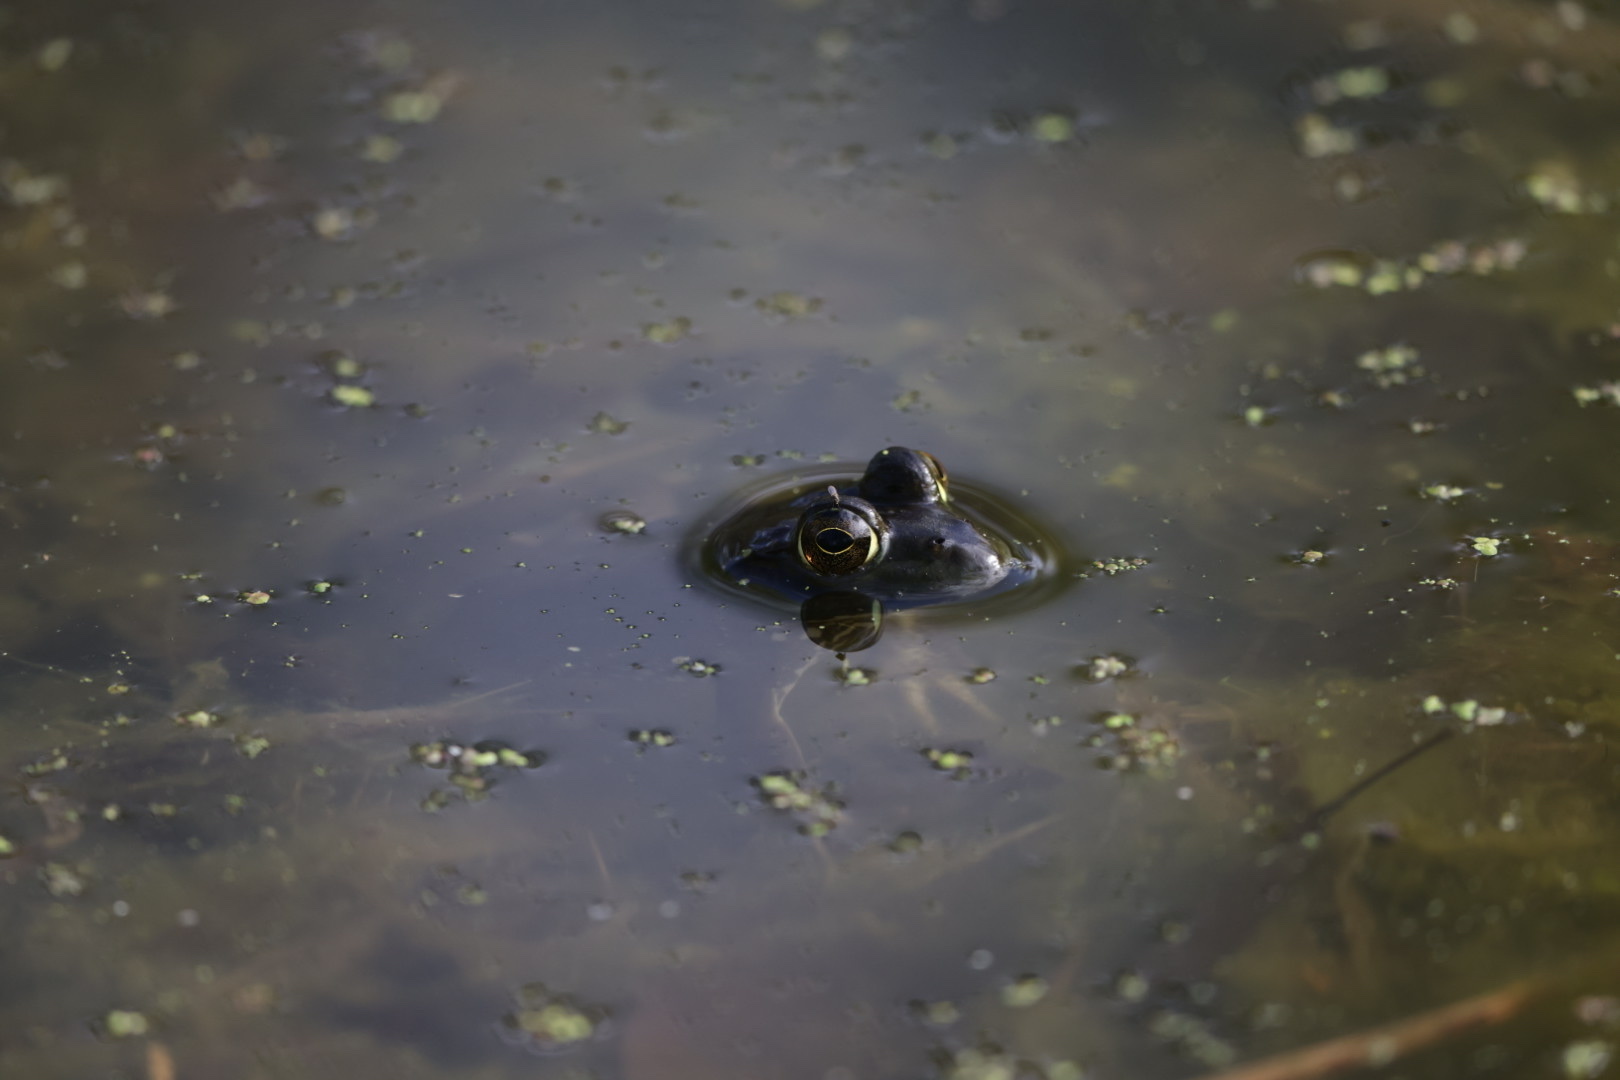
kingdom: Animalia
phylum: Chordata
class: Amphibia
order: Anura
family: Ranidae
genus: Lithobates
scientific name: Lithobates catesbeianus
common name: American bullfrog
